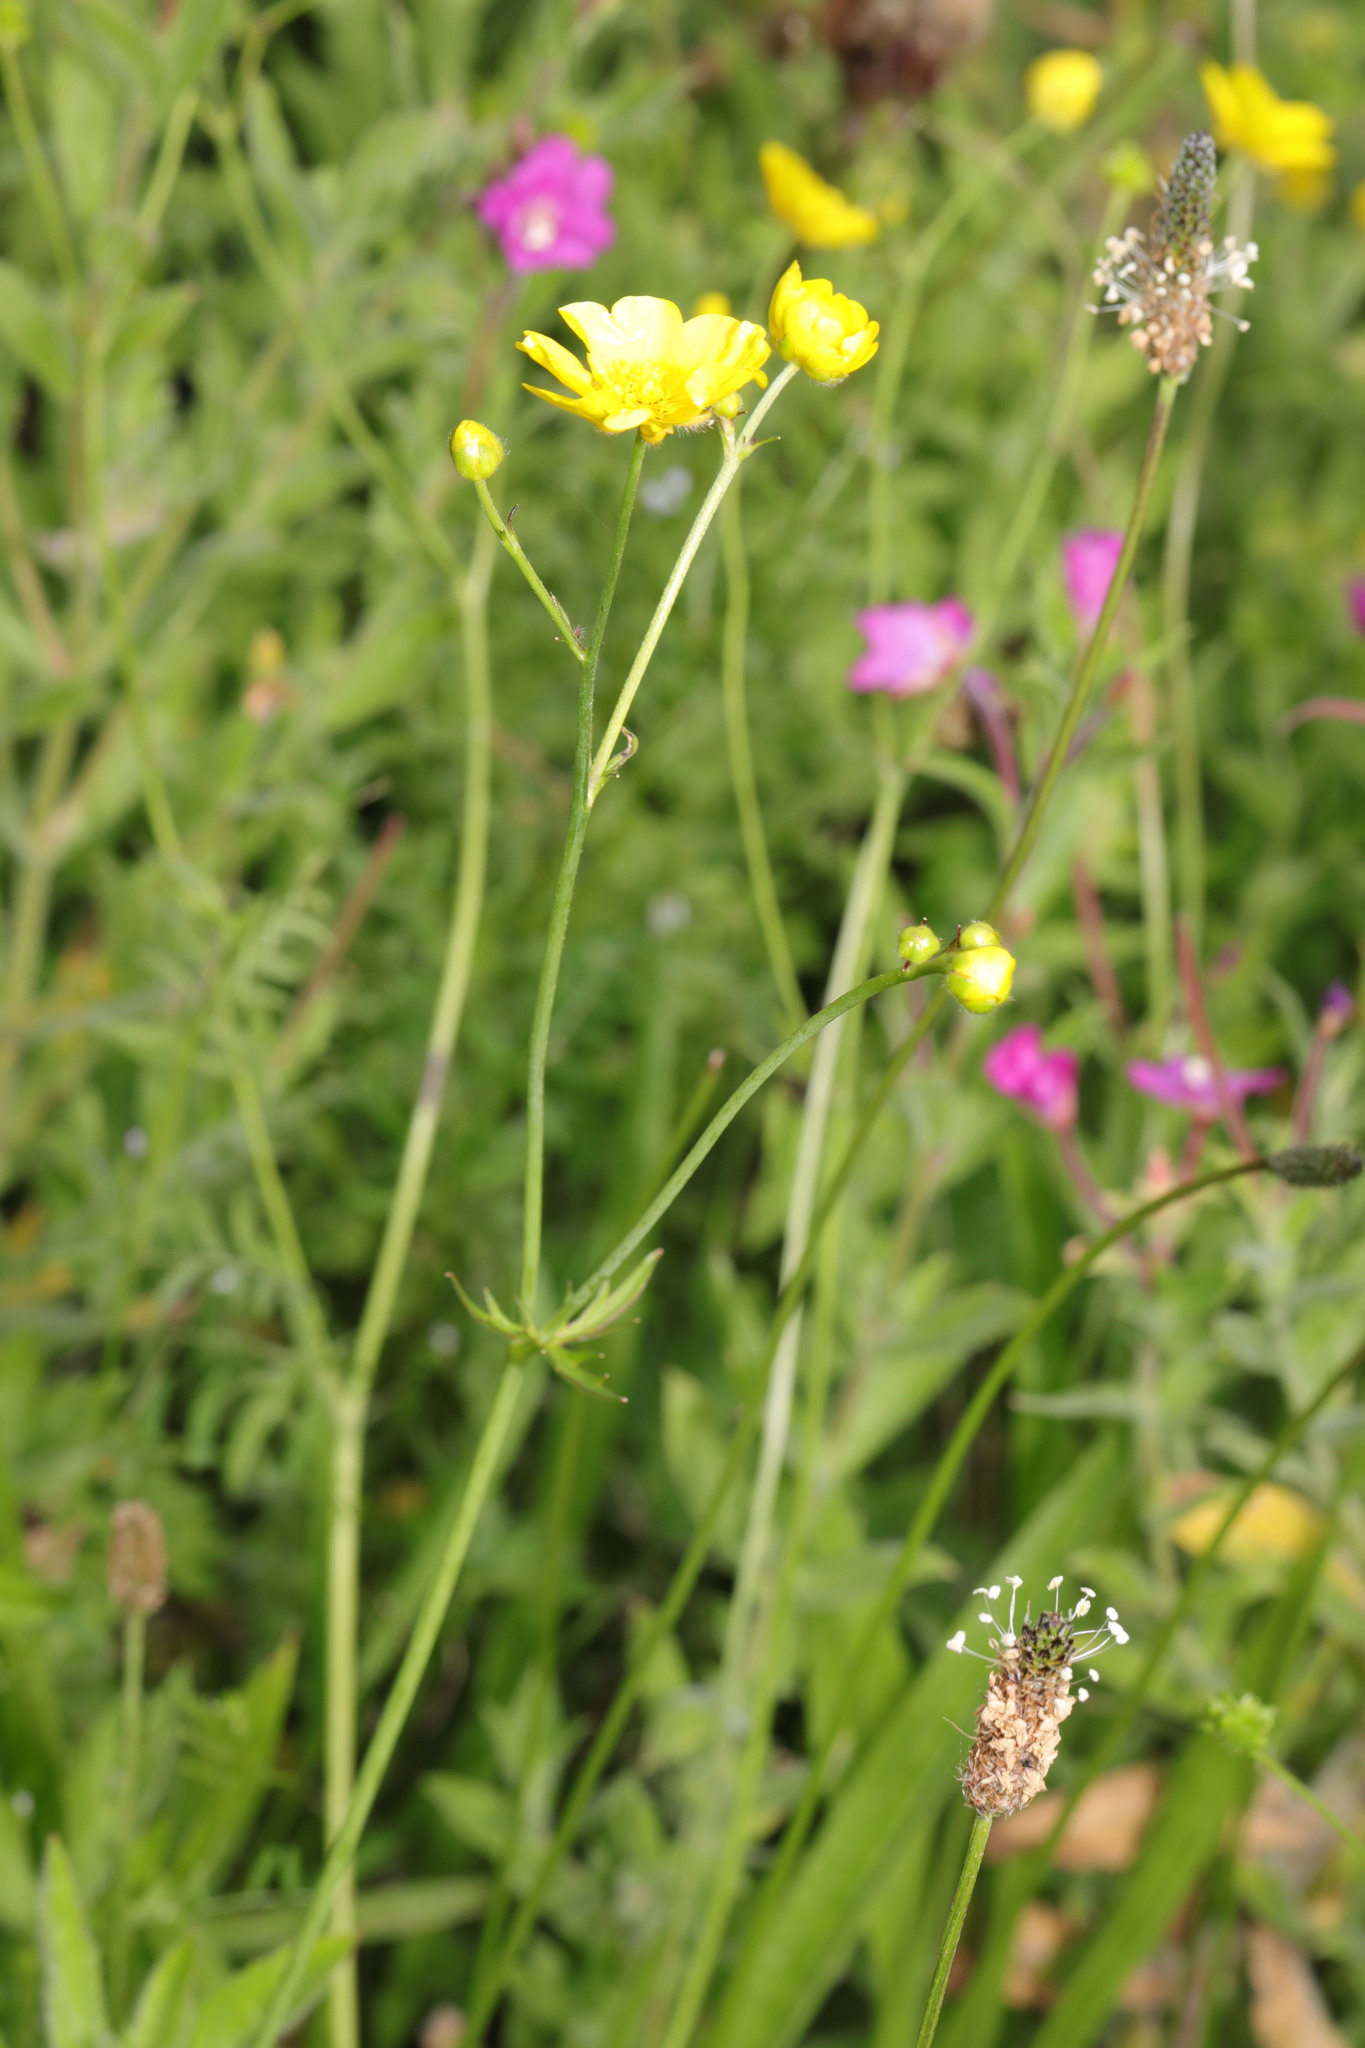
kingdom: Plantae
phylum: Tracheophyta
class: Magnoliopsida
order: Ranunculales
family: Ranunculaceae
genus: Ranunculus
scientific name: Ranunculus acris
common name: Meadow buttercup
